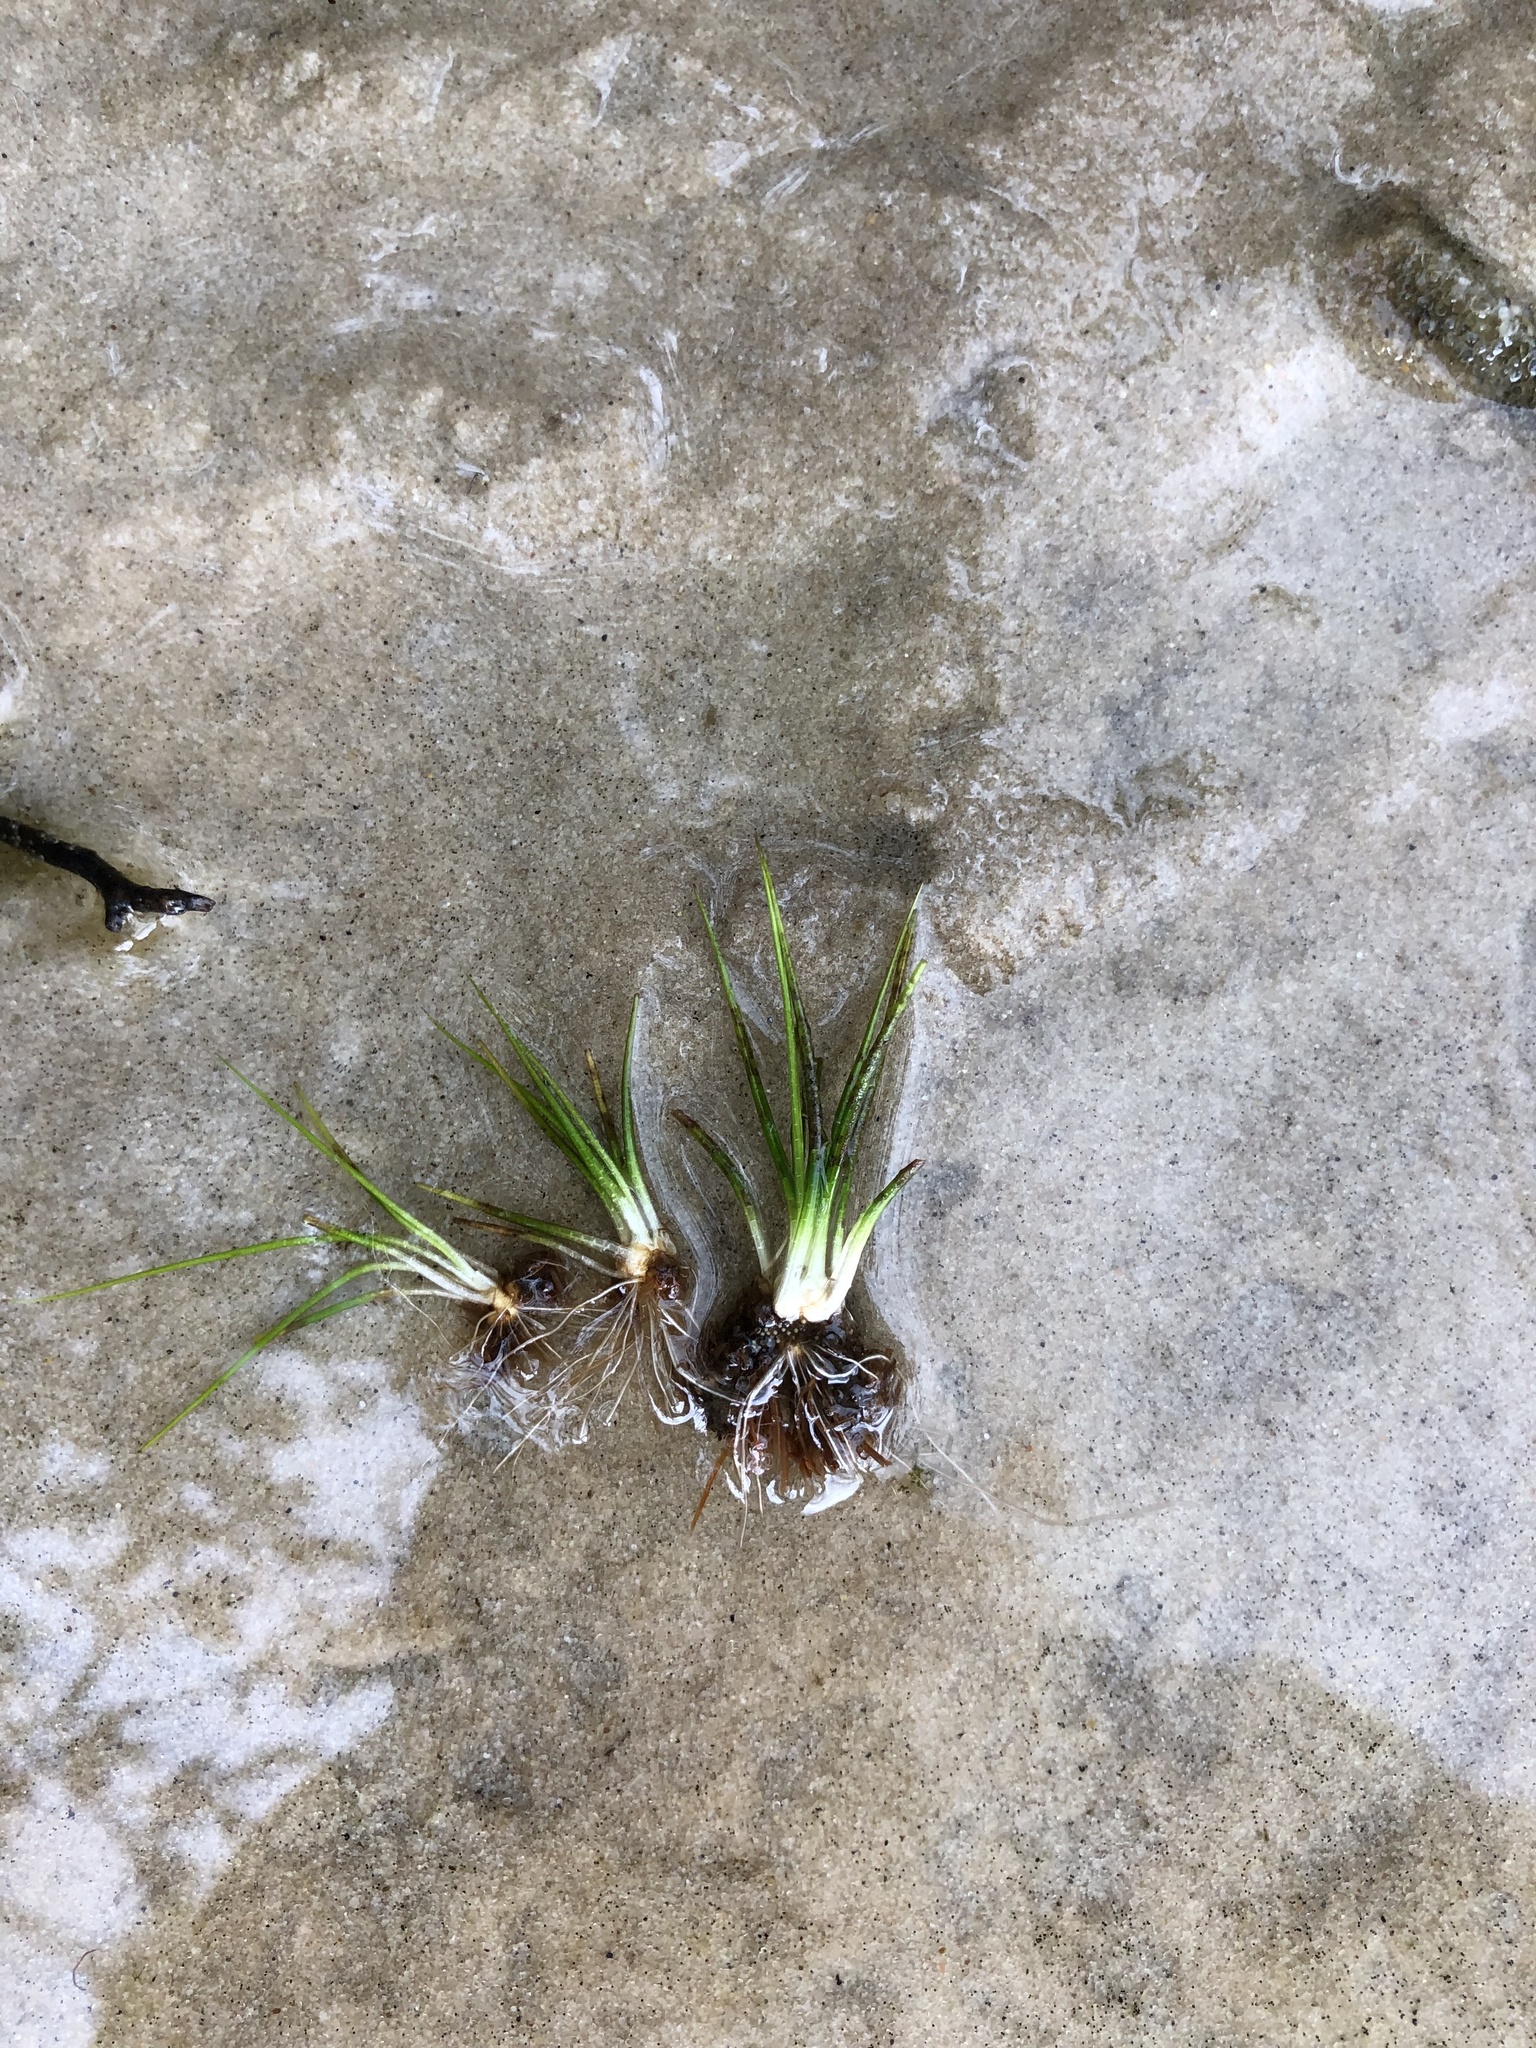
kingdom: Plantae
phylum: Tracheophyta
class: Lycopodiopsida
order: Isoetales
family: Isoetaceae
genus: Isoetes
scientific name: Isoetes echinospora
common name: Spring quillwort
